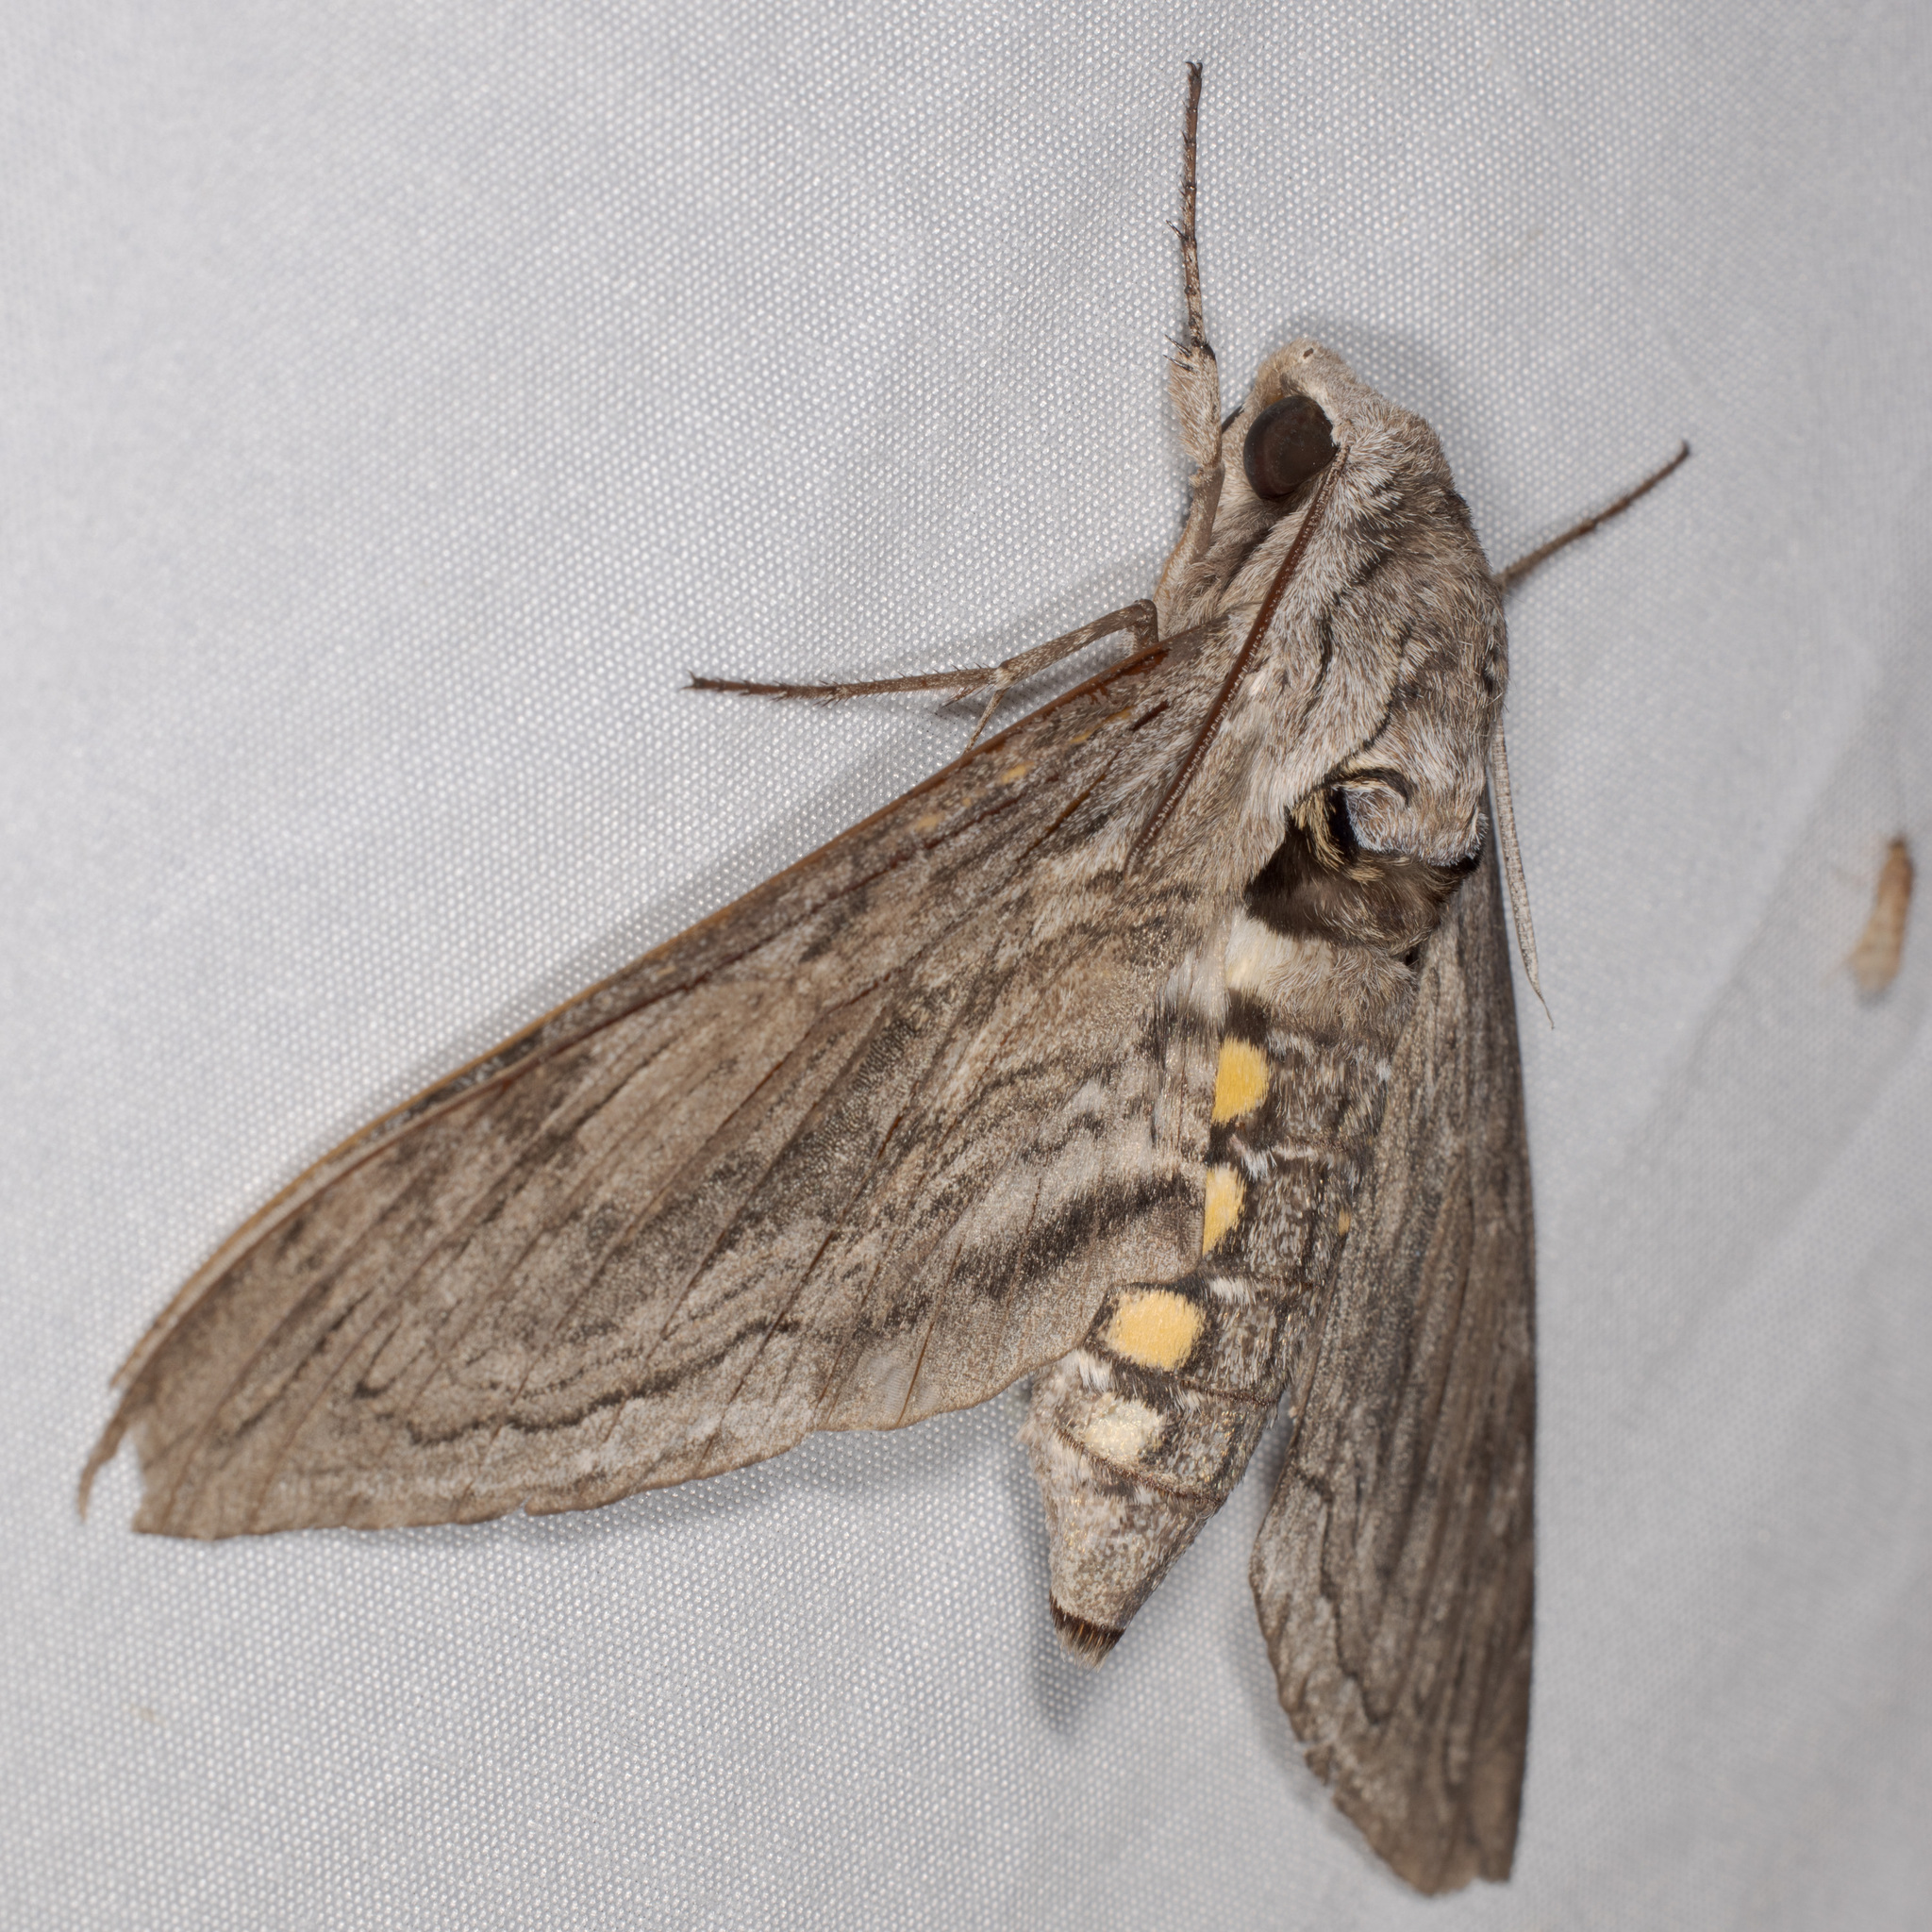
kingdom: Animalia
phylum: Arthropoda
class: Insecta
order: Lepidoptera
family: Sphingidae
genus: Manduca
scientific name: Manduca quinquemaculatus
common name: Five-spotted hawk-moth
